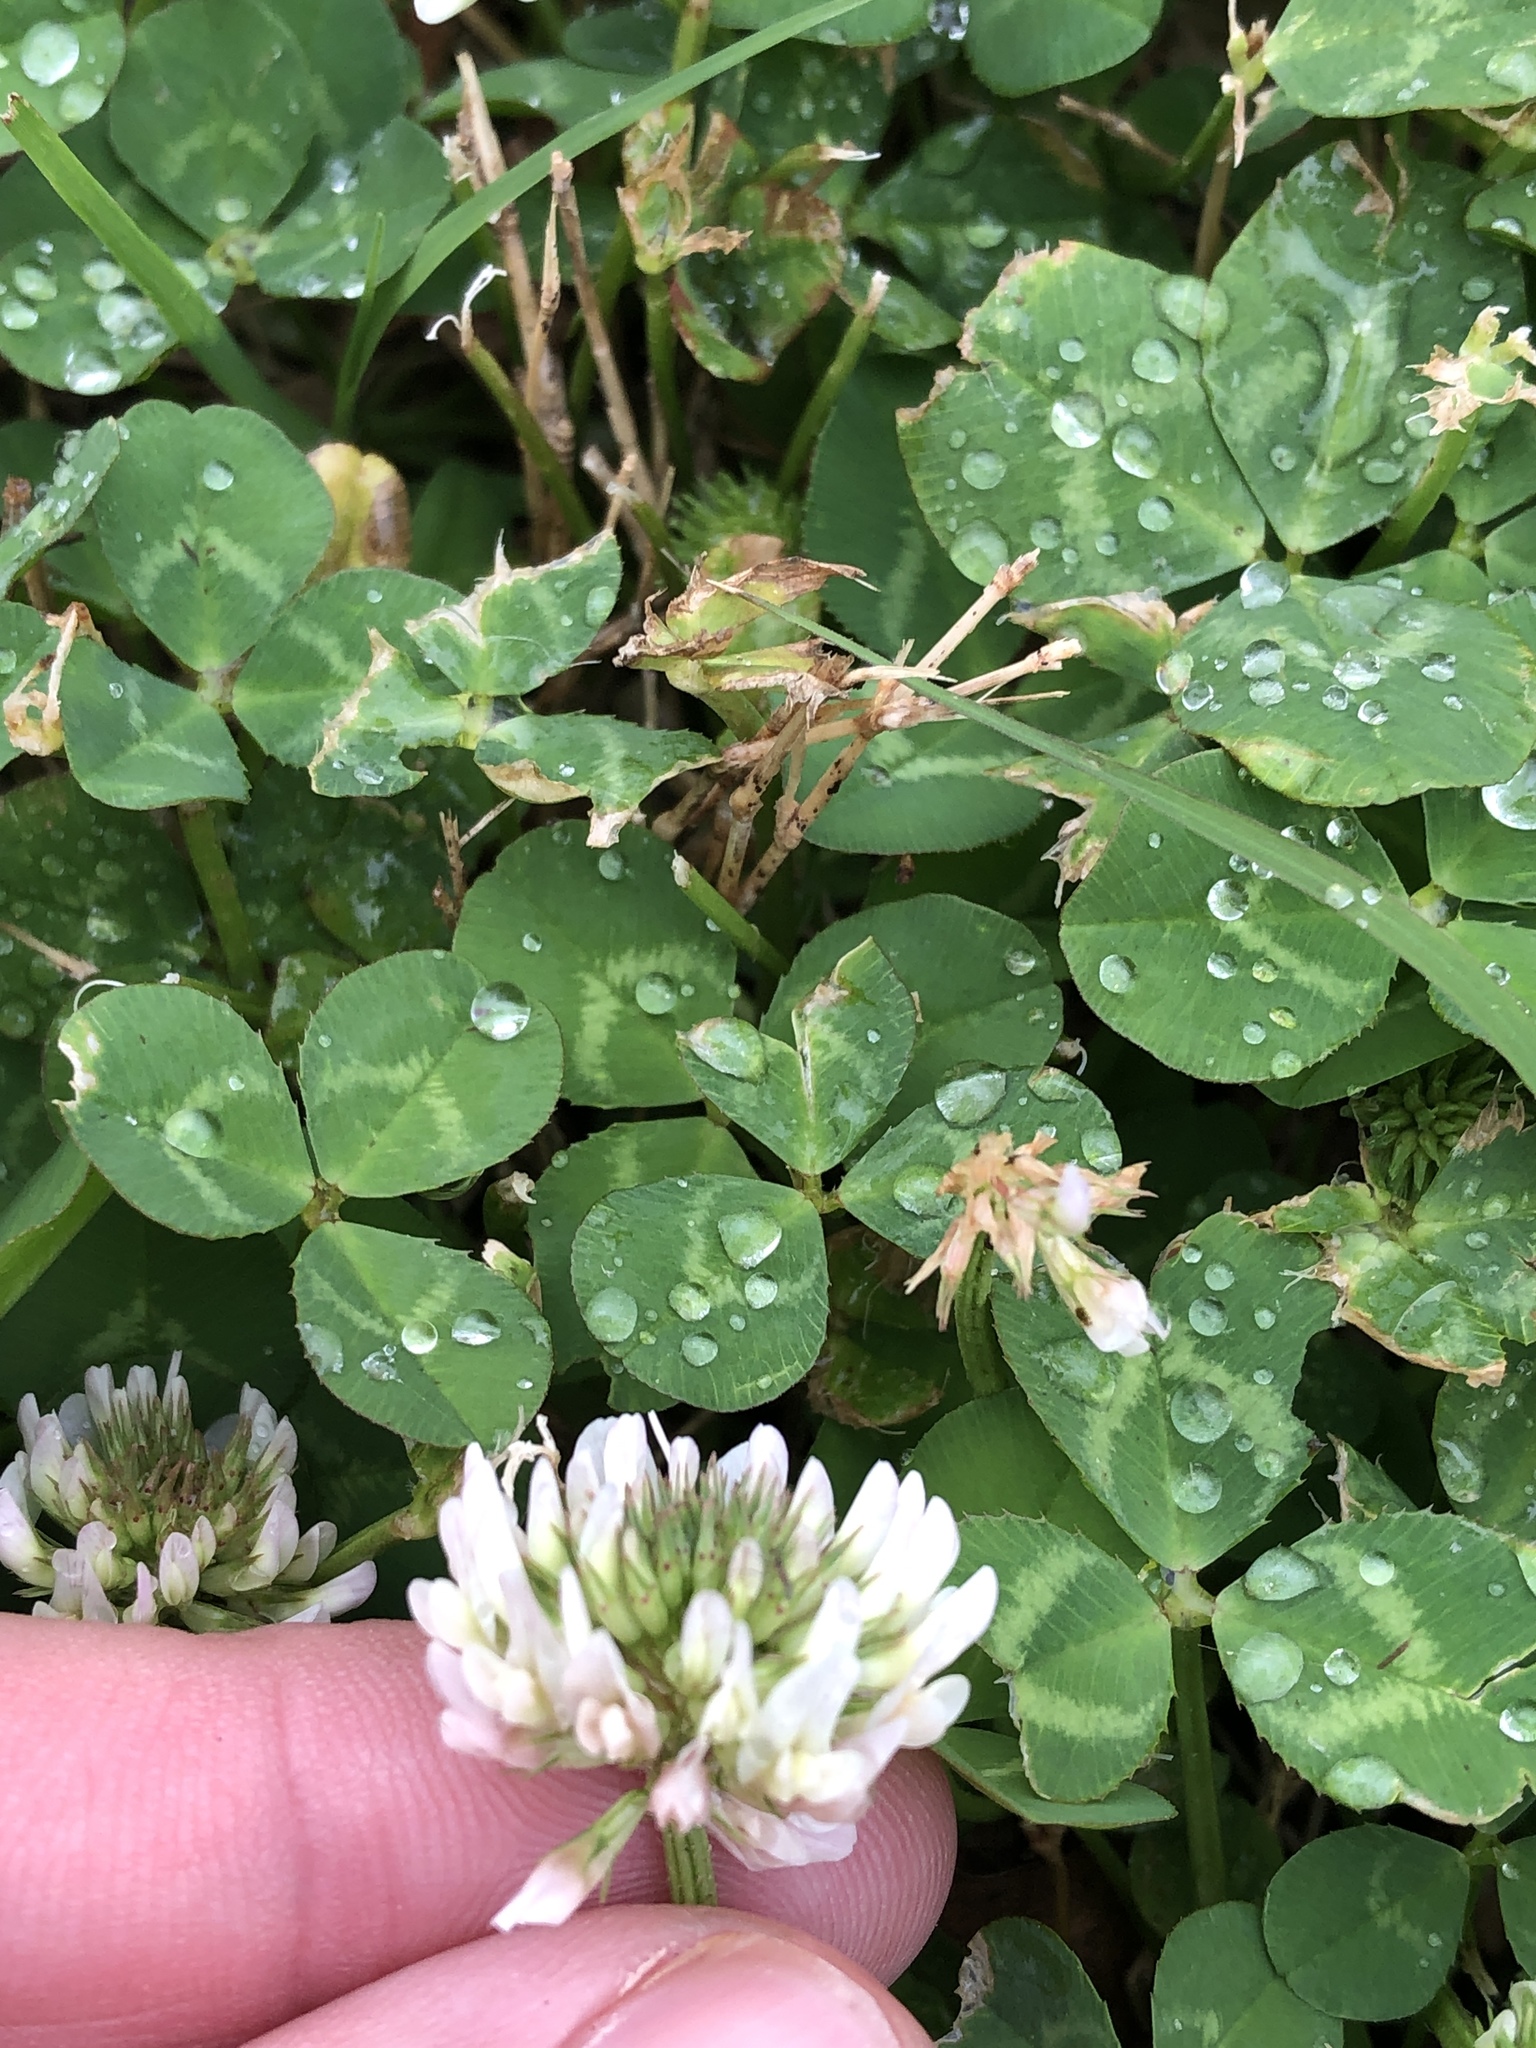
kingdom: Plantae
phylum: Tracheophyta
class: Magnoliopsida
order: Fabales
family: Fabaceae
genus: Trifolium
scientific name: Trifolium repens
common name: White clover
